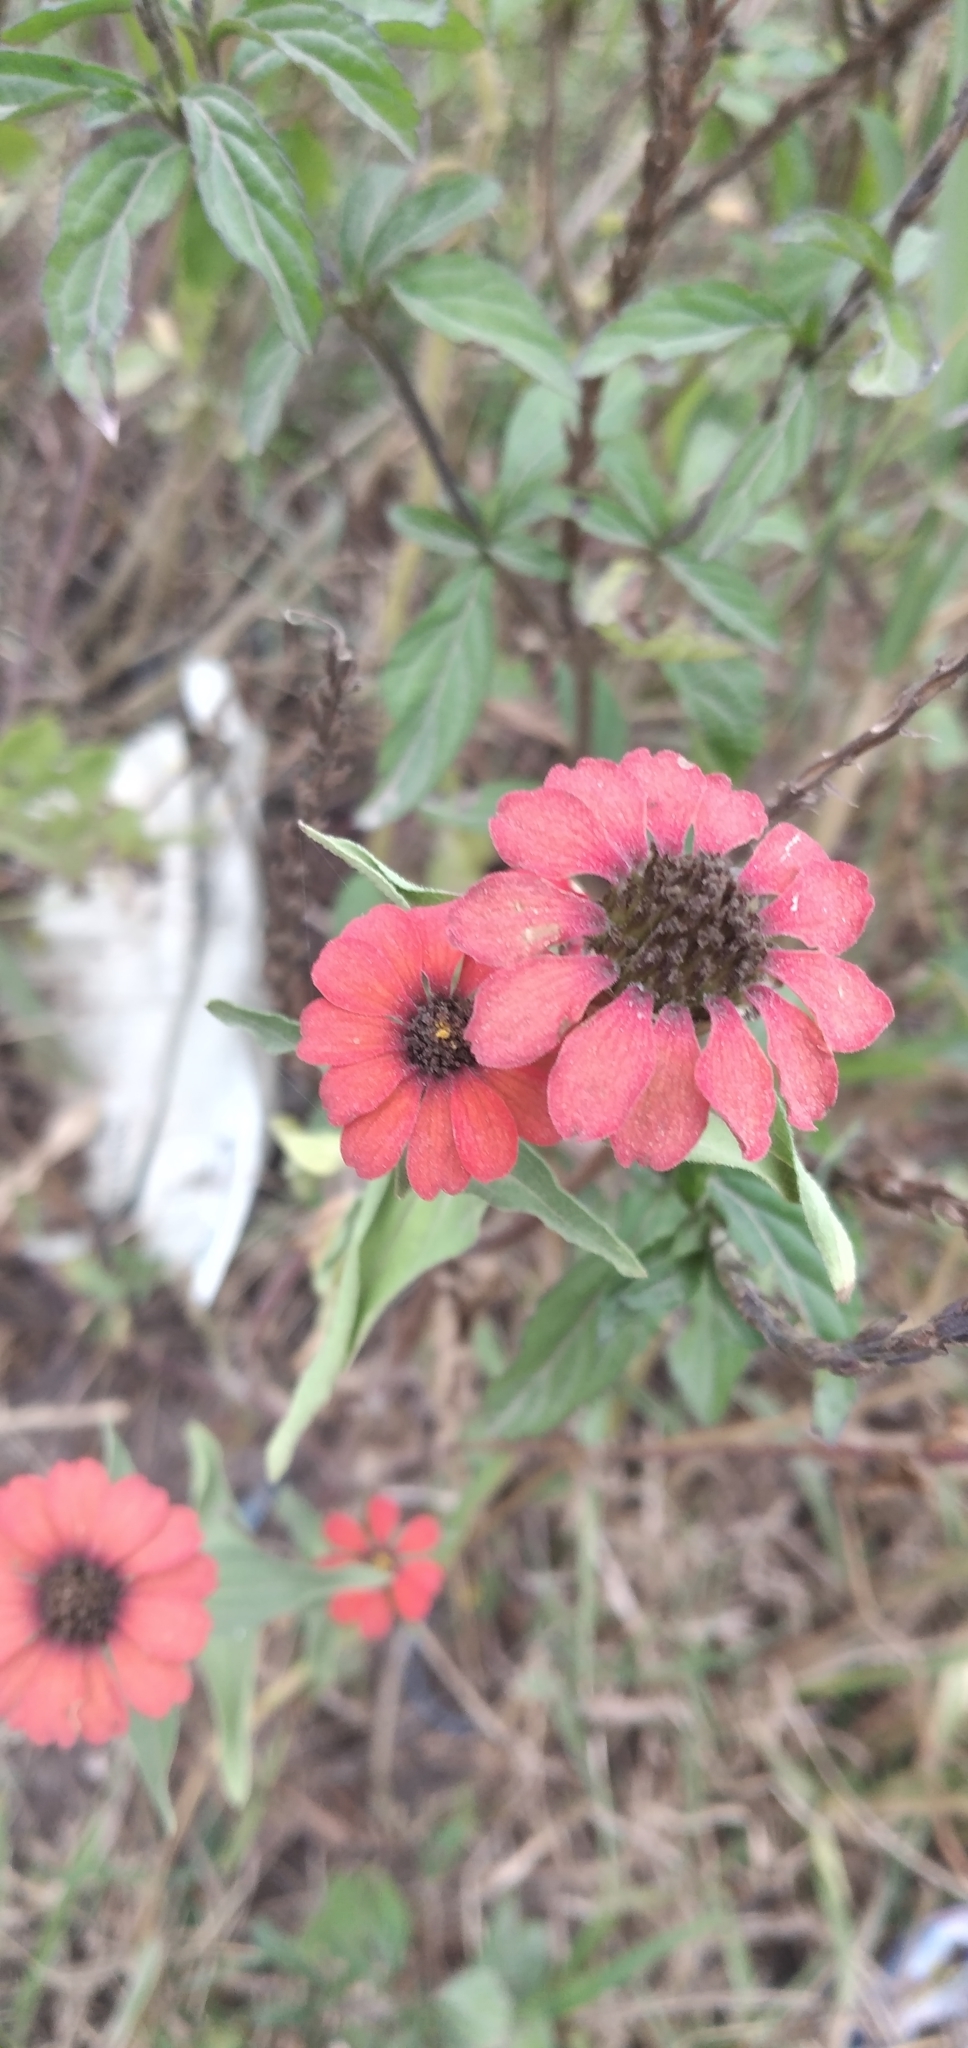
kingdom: Plantae
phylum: Tracheophyta
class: Magnoliopsida
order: Asterales
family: Asteraceae
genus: Zinnia
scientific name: Zinnia peruviana
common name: Peruvian zinnia
